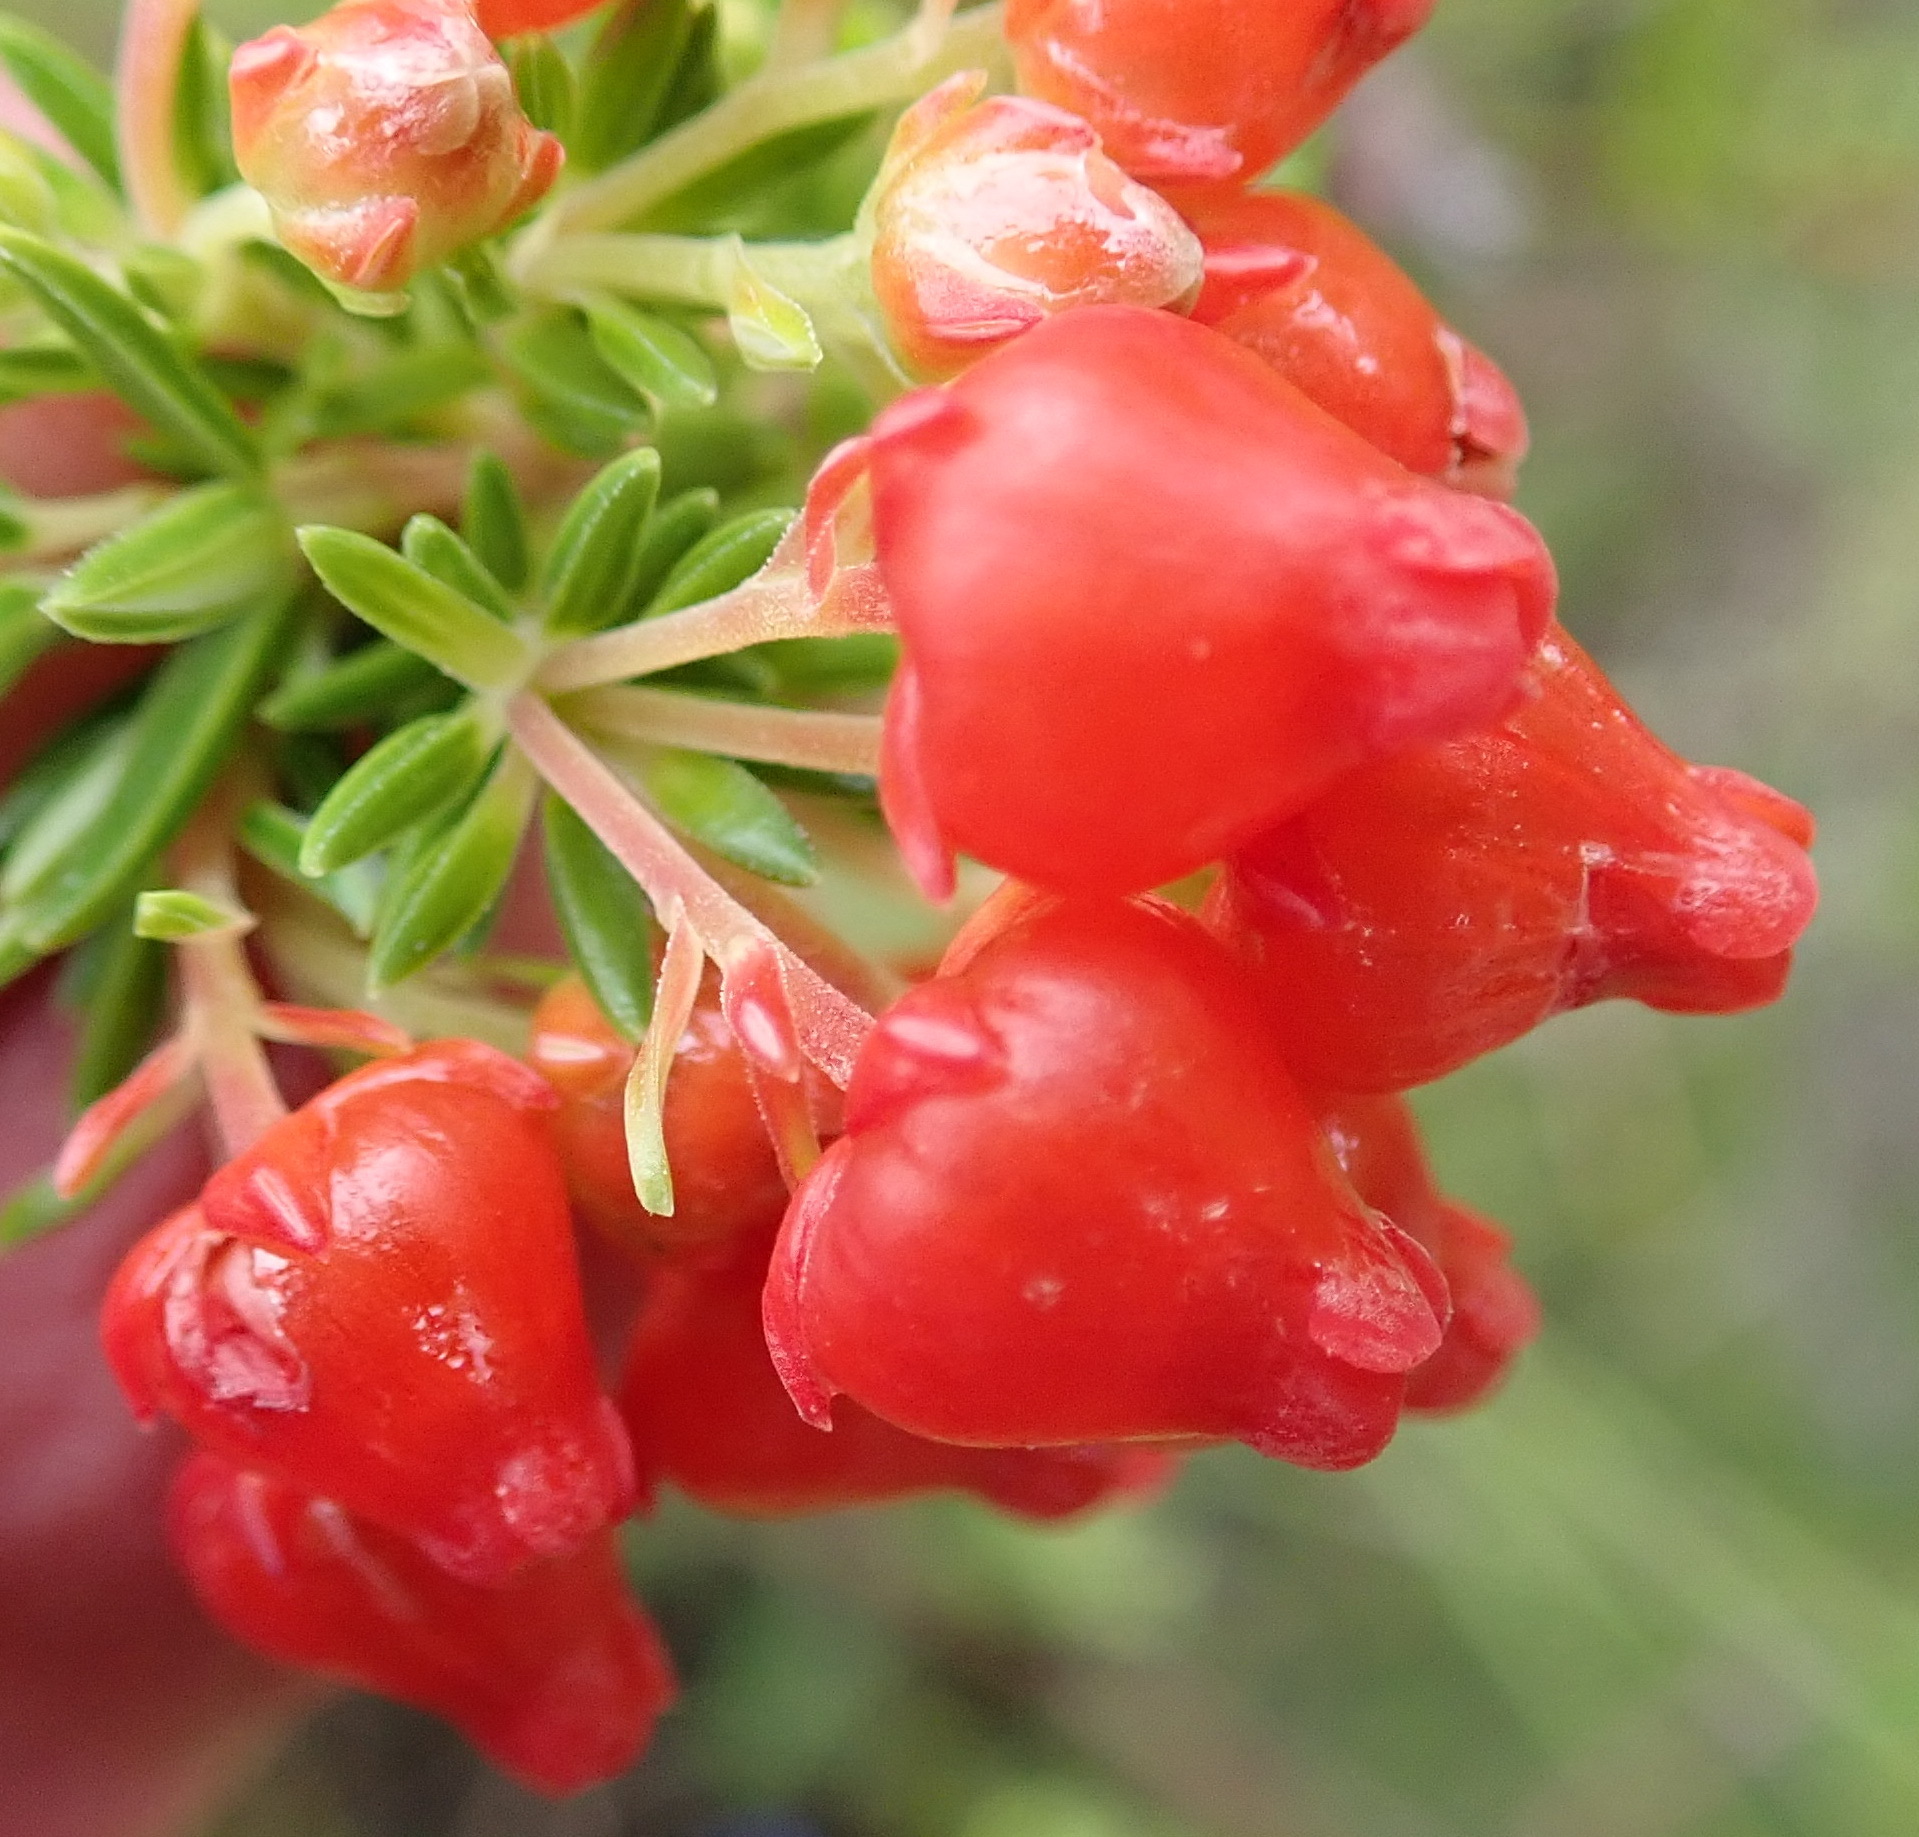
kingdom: Plantae
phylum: Tracheophyta
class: Magnoliopsida
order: Ericales
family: Ericaceae
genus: Erica
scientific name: Erica ardens
